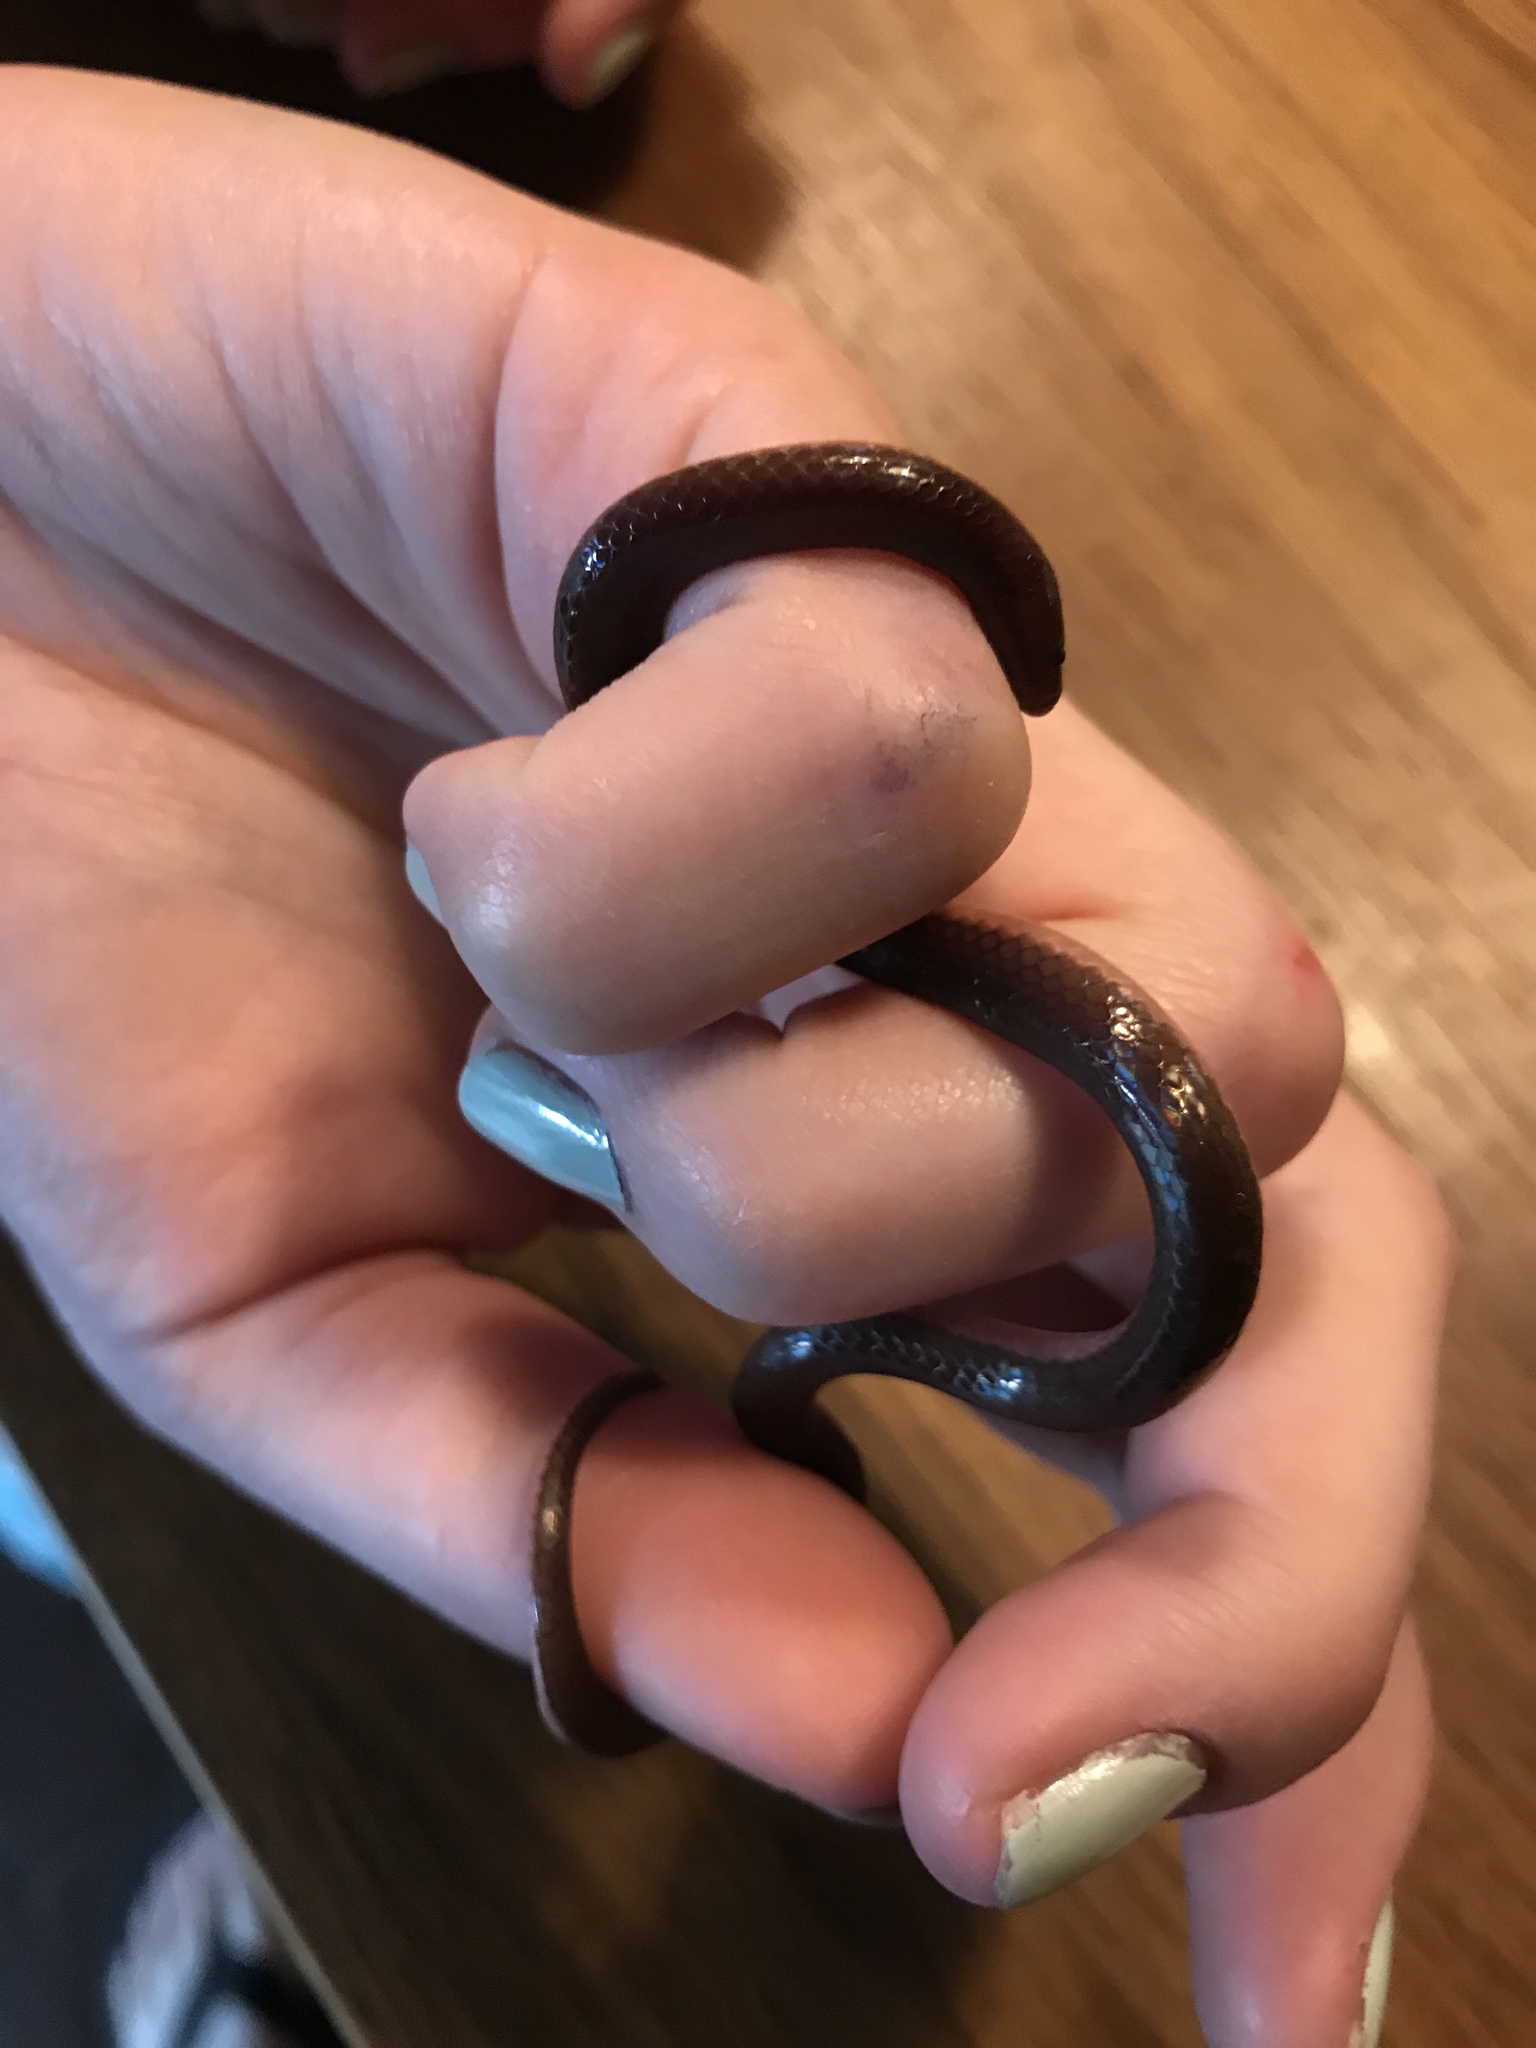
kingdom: Animalia
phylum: Chordata
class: Squamata
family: Colubridae
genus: Carphophis
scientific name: Carphophis amoenus
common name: Eastern worm snake
